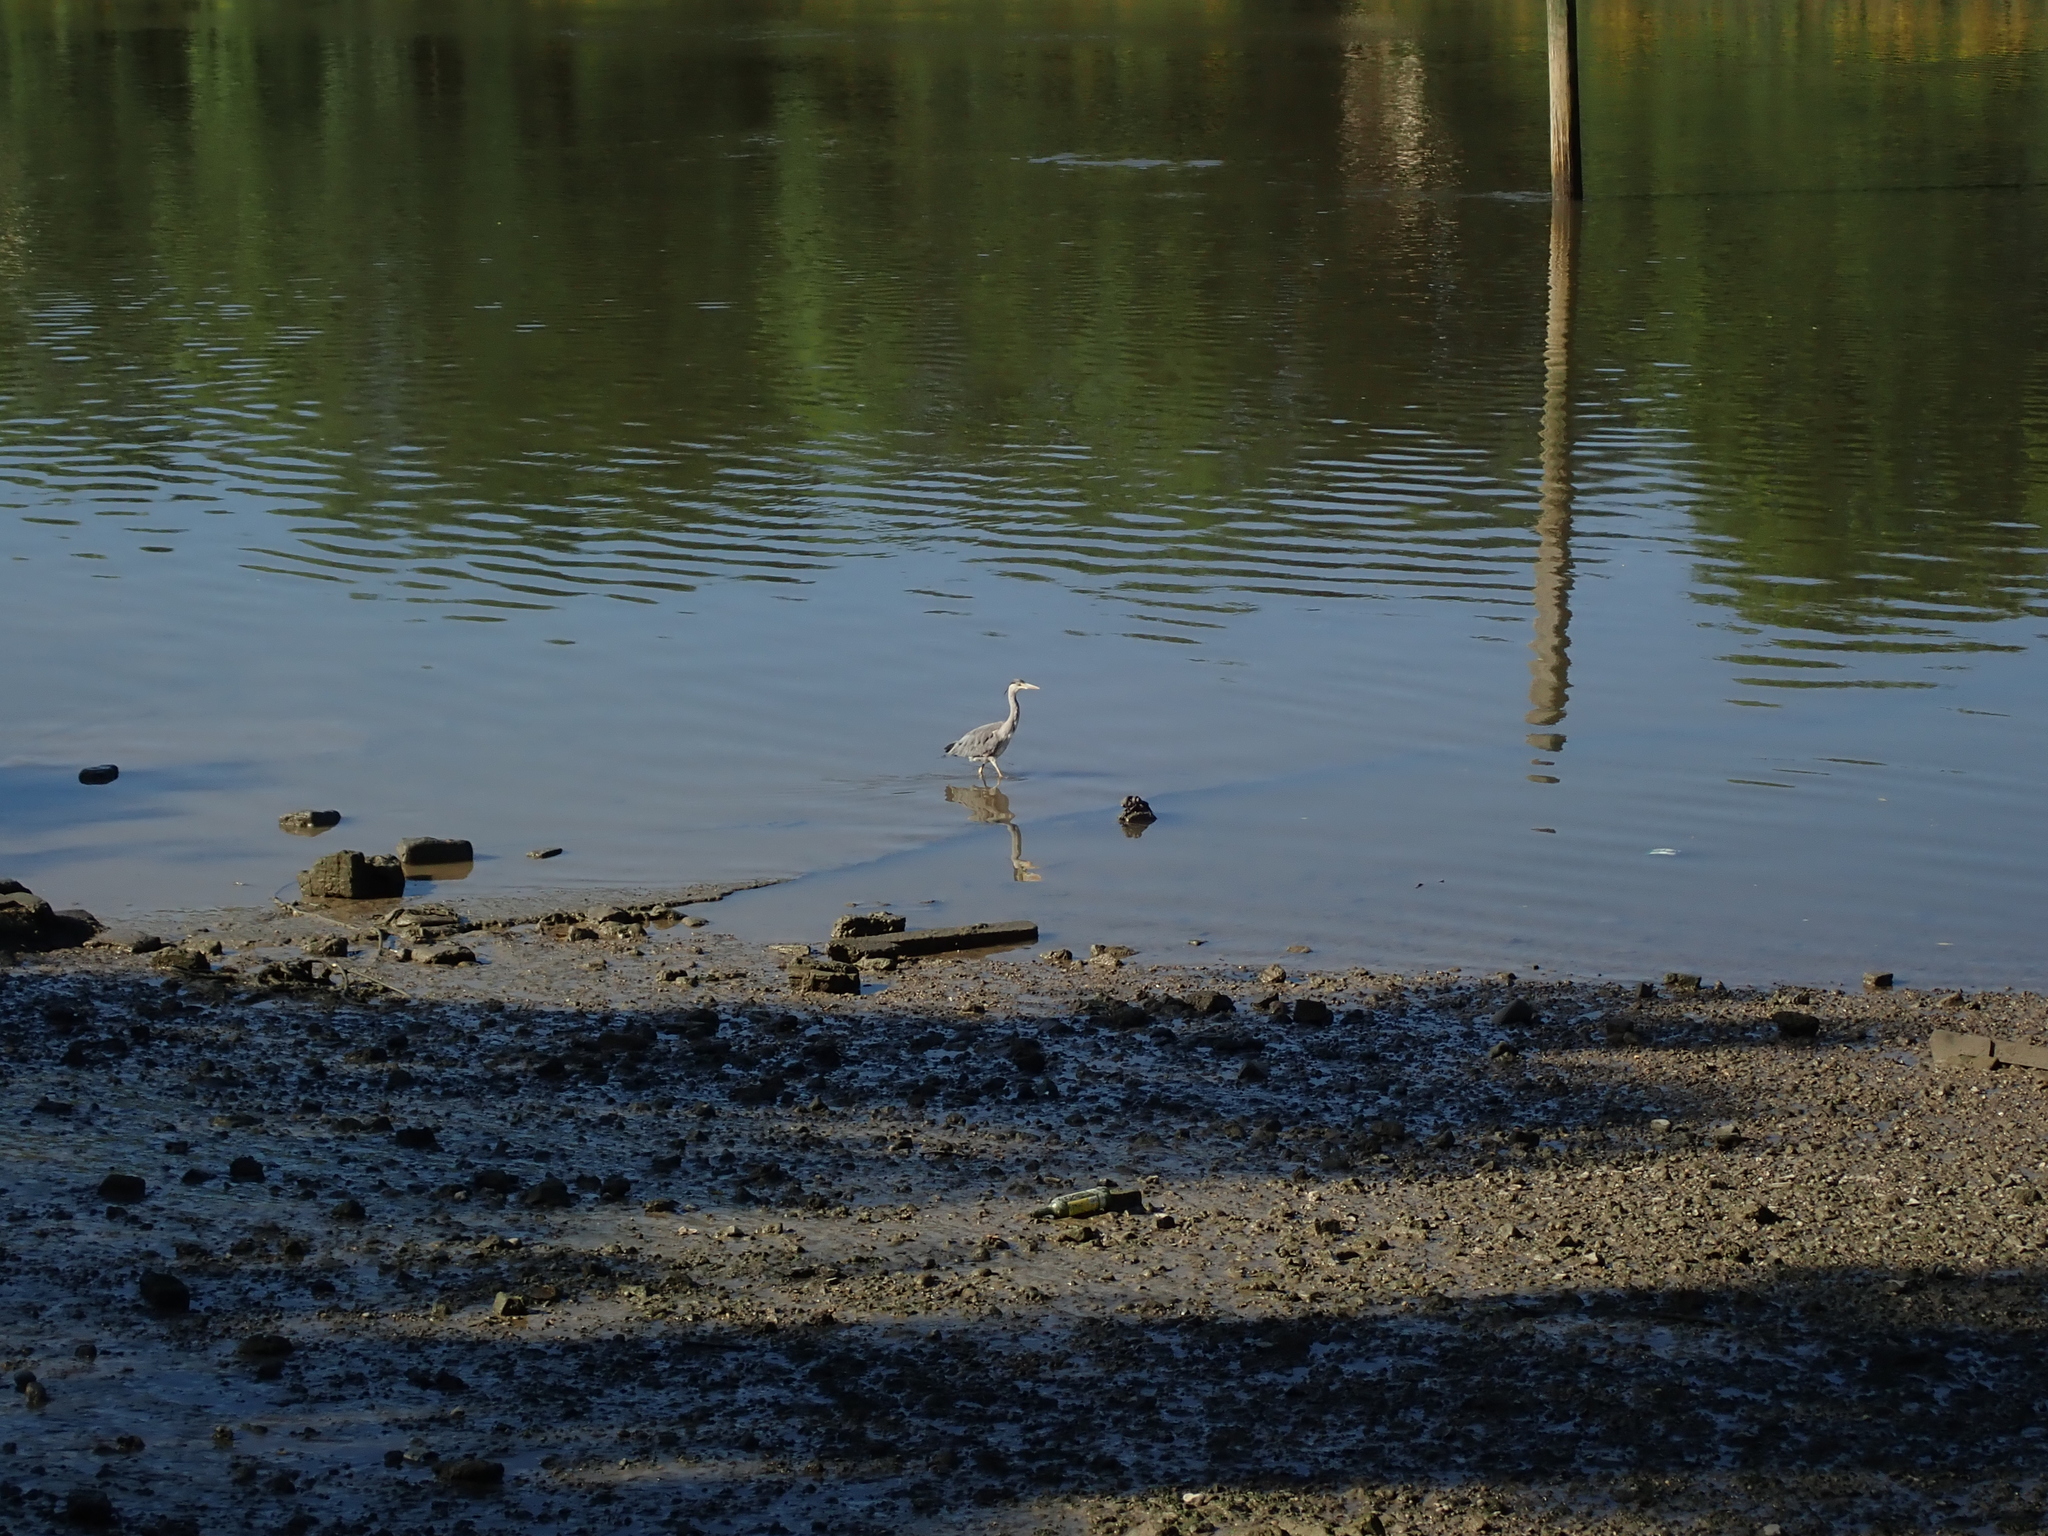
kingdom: Animalia
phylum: Chordata
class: Aves
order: Pelecaniformes
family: Ardeidae
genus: Ardea
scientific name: Ardea cinerea
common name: Grey heron
